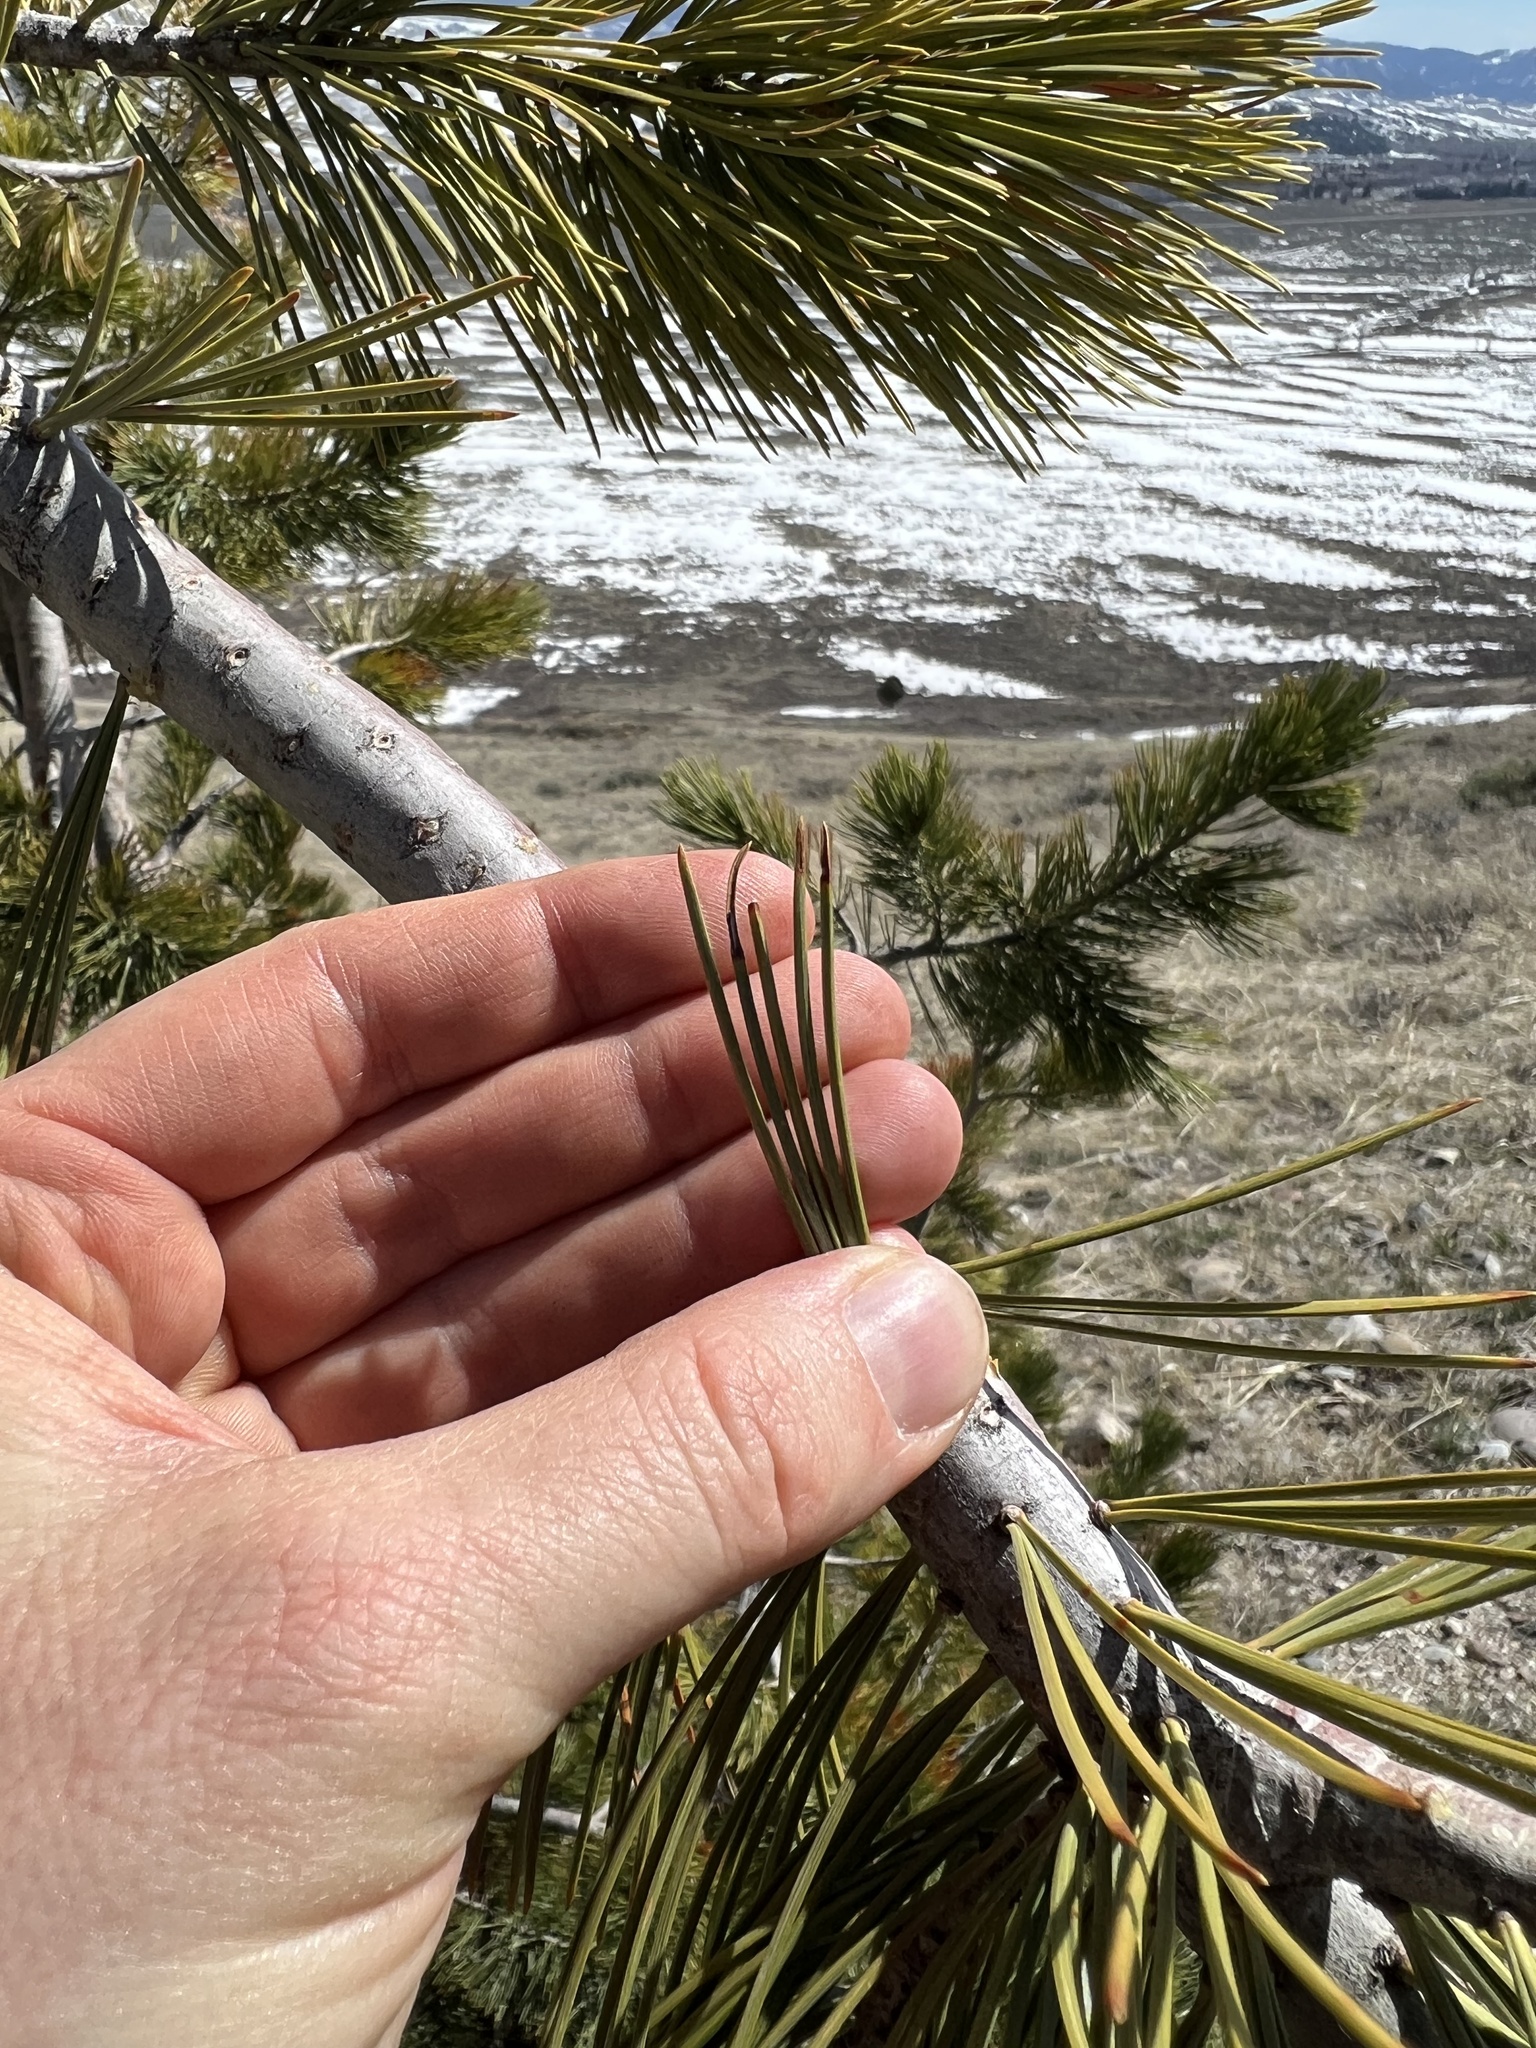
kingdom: Plantae
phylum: Tracheophyta
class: Pinopsida
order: Pinales
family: Pinaceae
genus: Pinus
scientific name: Pinus flexilis
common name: Limber pine
